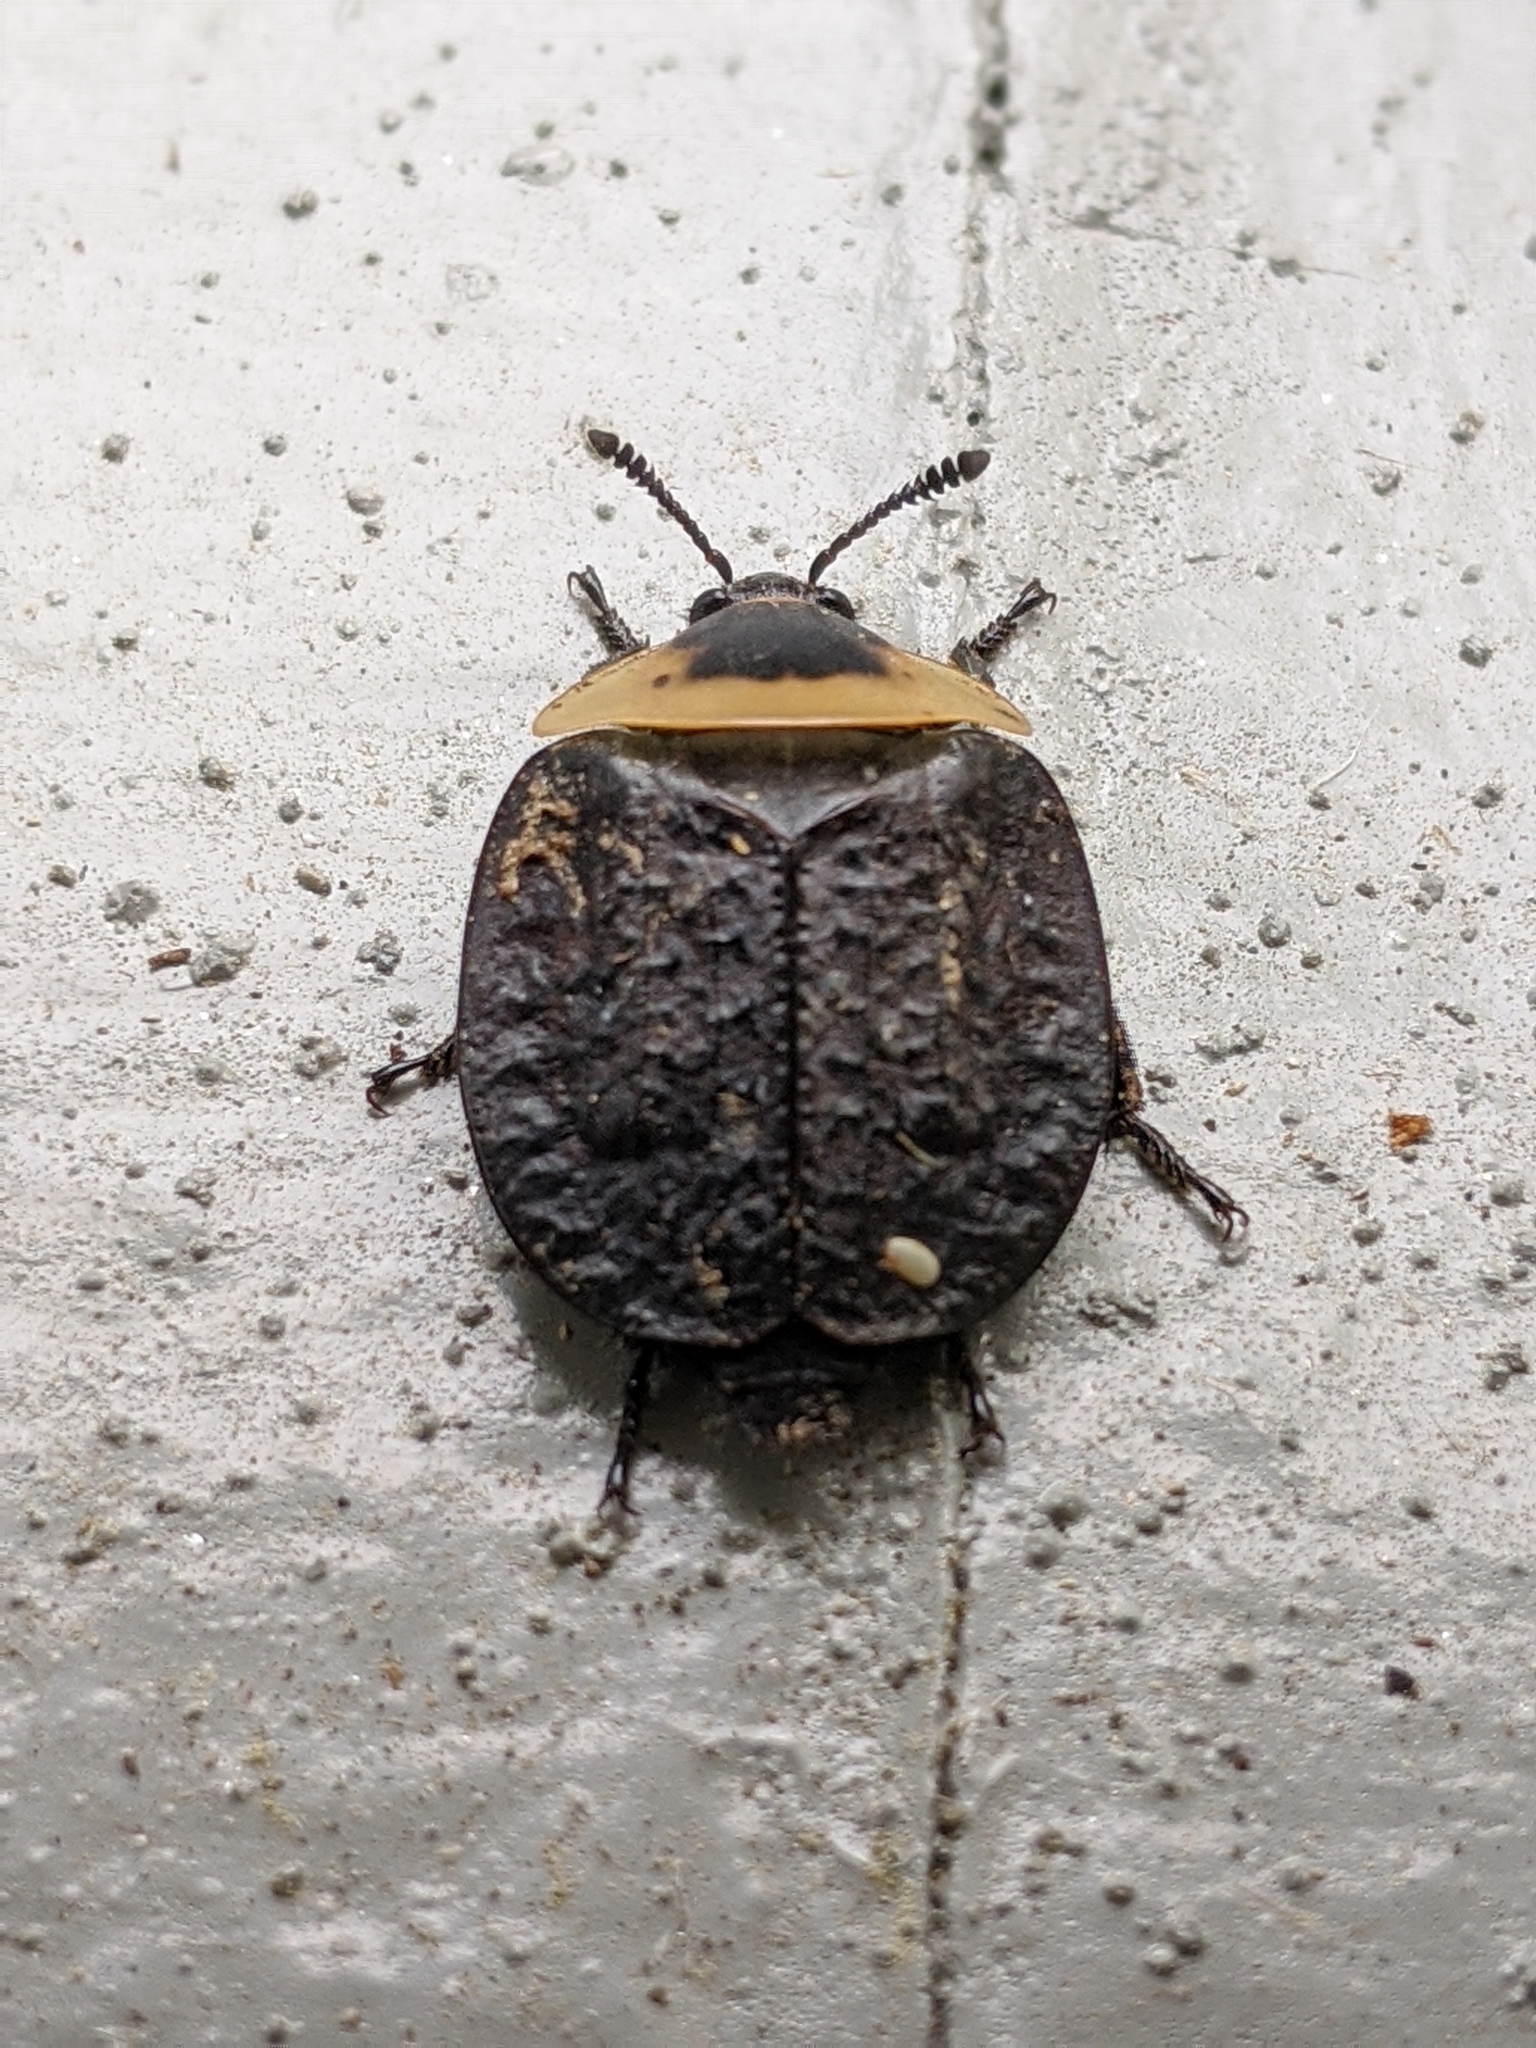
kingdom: Animalia
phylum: Arthropoda
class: Insecta
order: Coleoptera
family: Staphylinidae
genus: Necrophila
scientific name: Necrophila americana
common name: American carrion beetle
